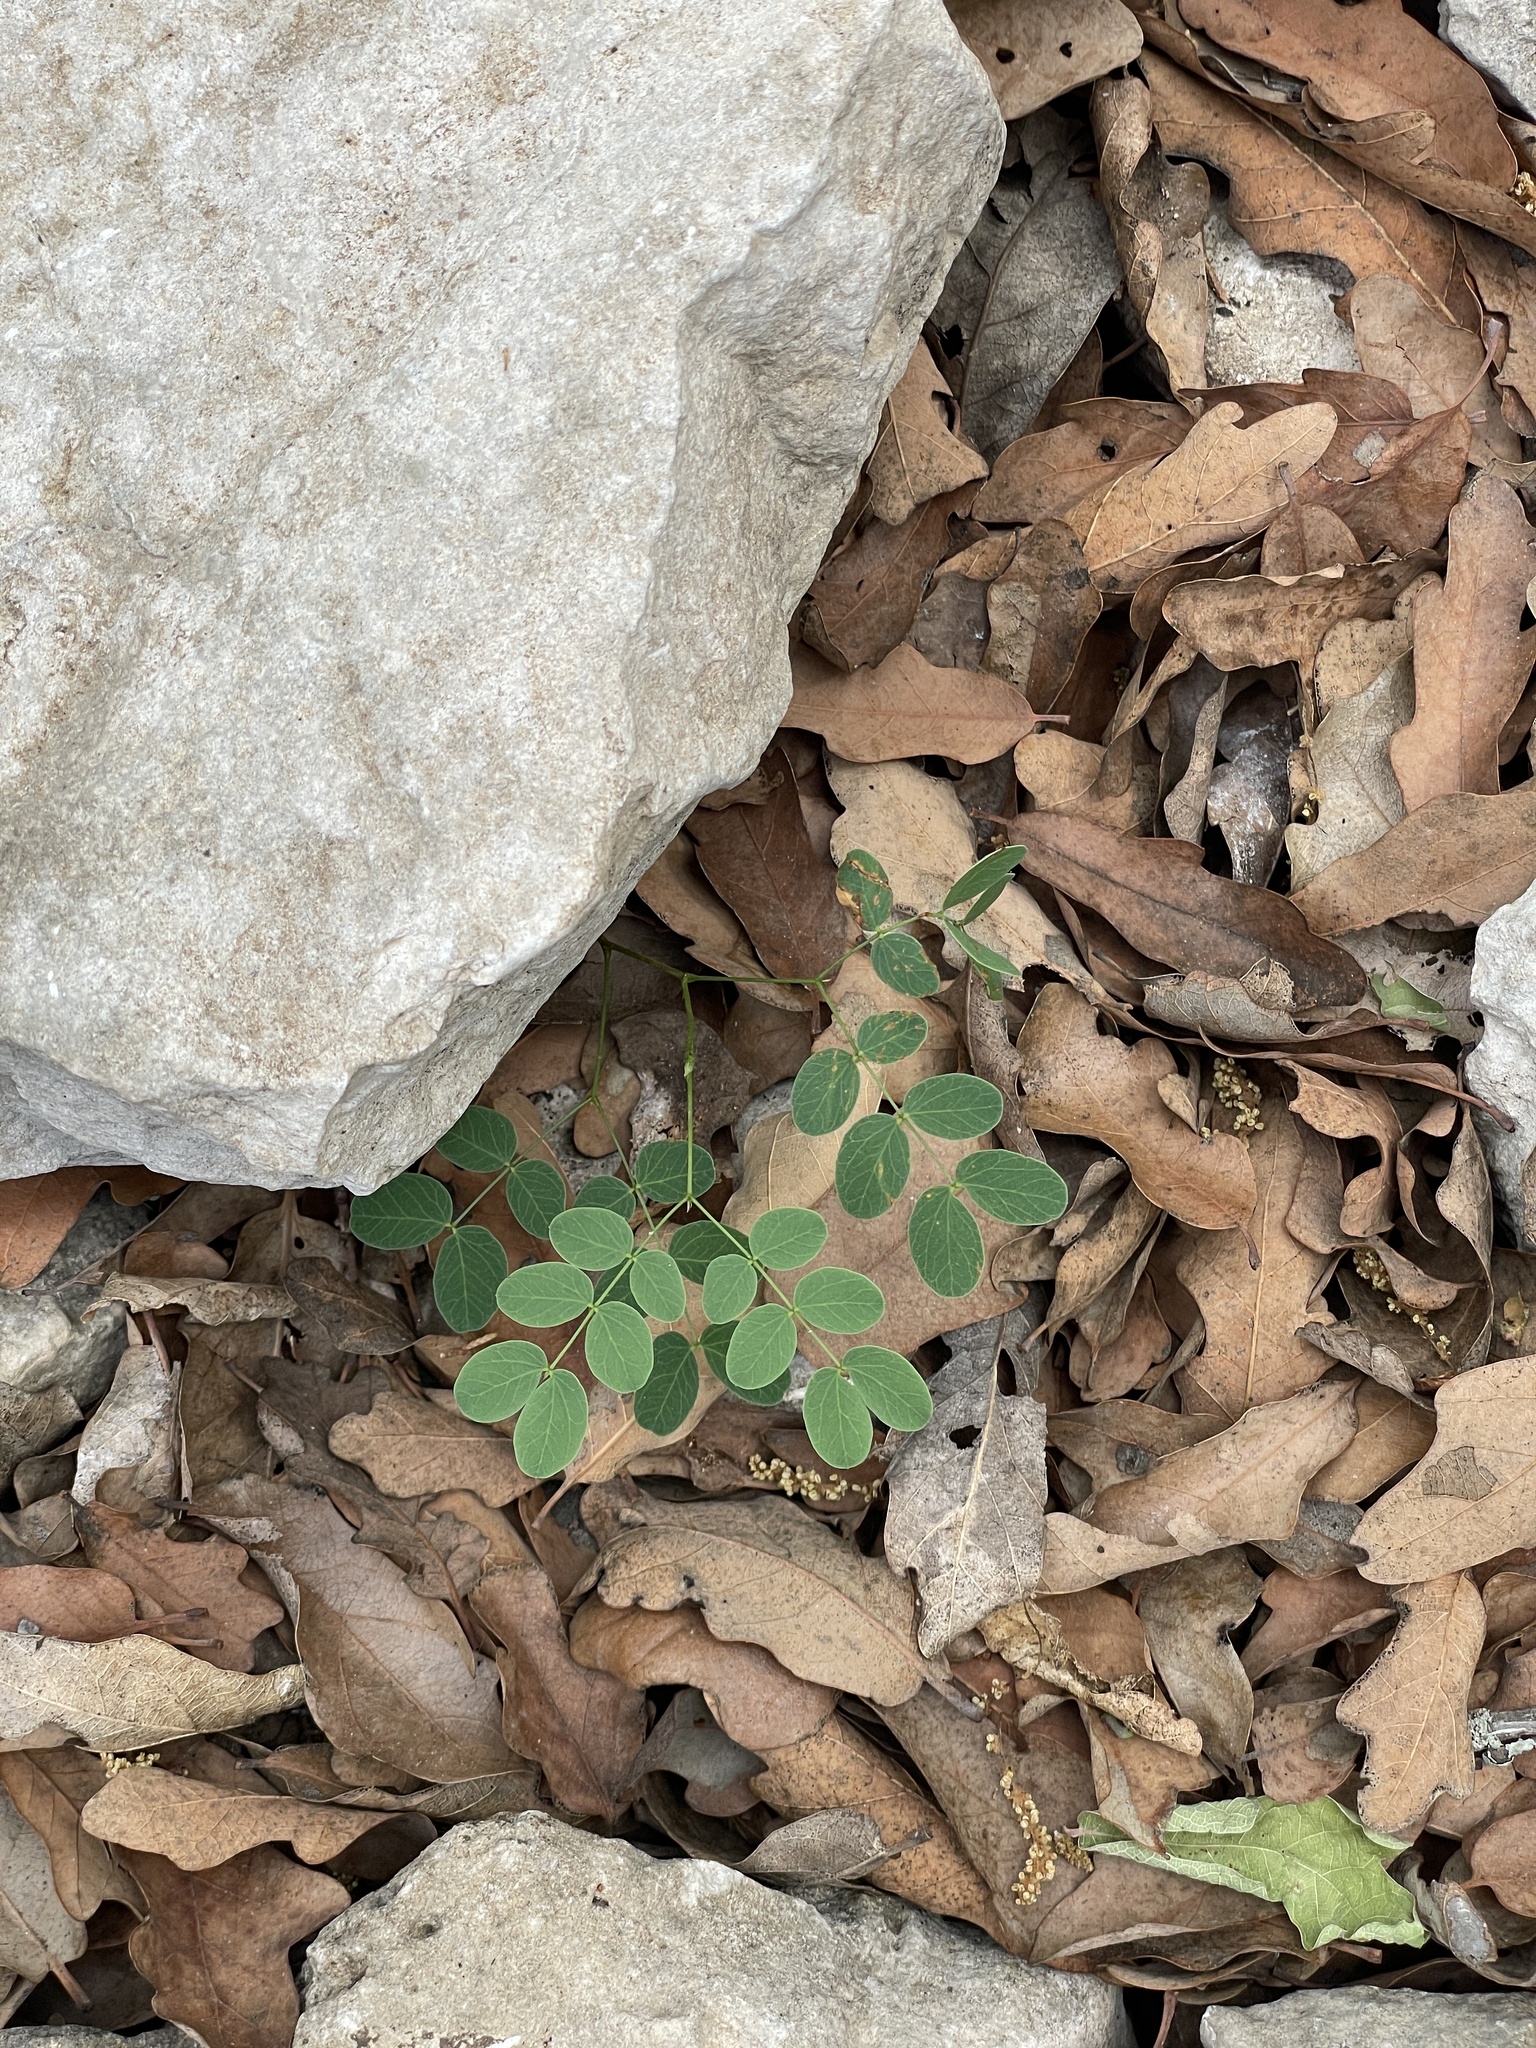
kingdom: Plantae
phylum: Tracheophyta
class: Magnoliopsida
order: Fabales
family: Fabaceae
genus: Leucaena
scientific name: Leucaena retusa
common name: Littleleaf leadtree
